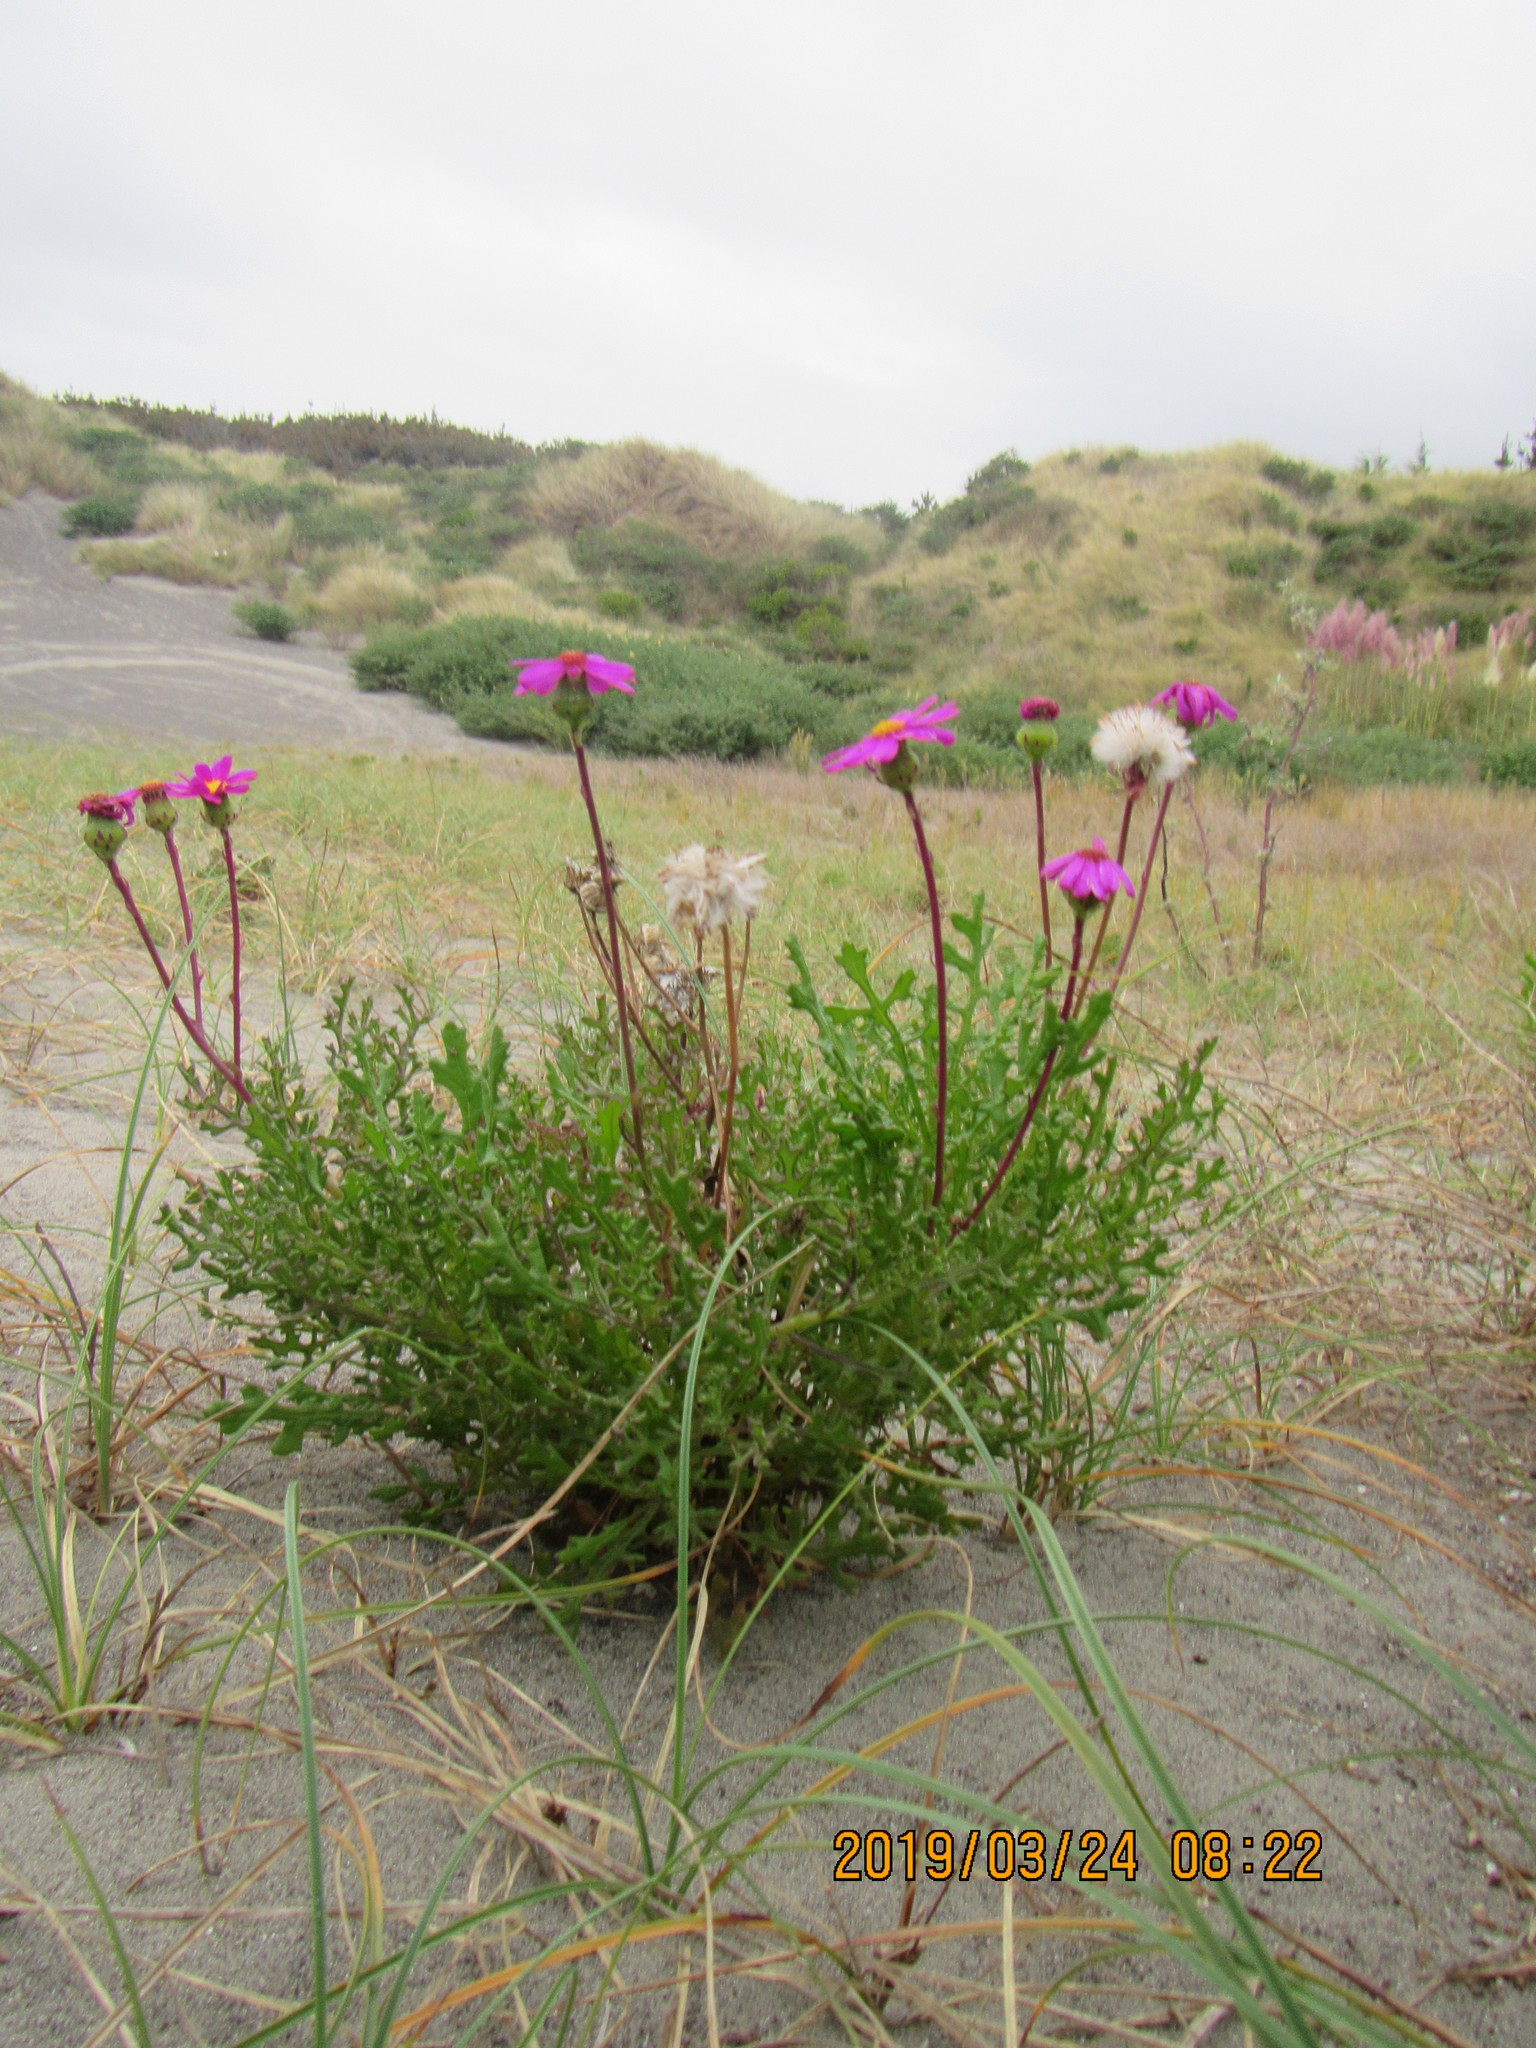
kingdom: Plantae
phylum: Tracheophyta
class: Magnoliopsida
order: Asterales
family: Asteraceae
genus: Senecio
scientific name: Senecio elegans
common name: Purple groundsel
